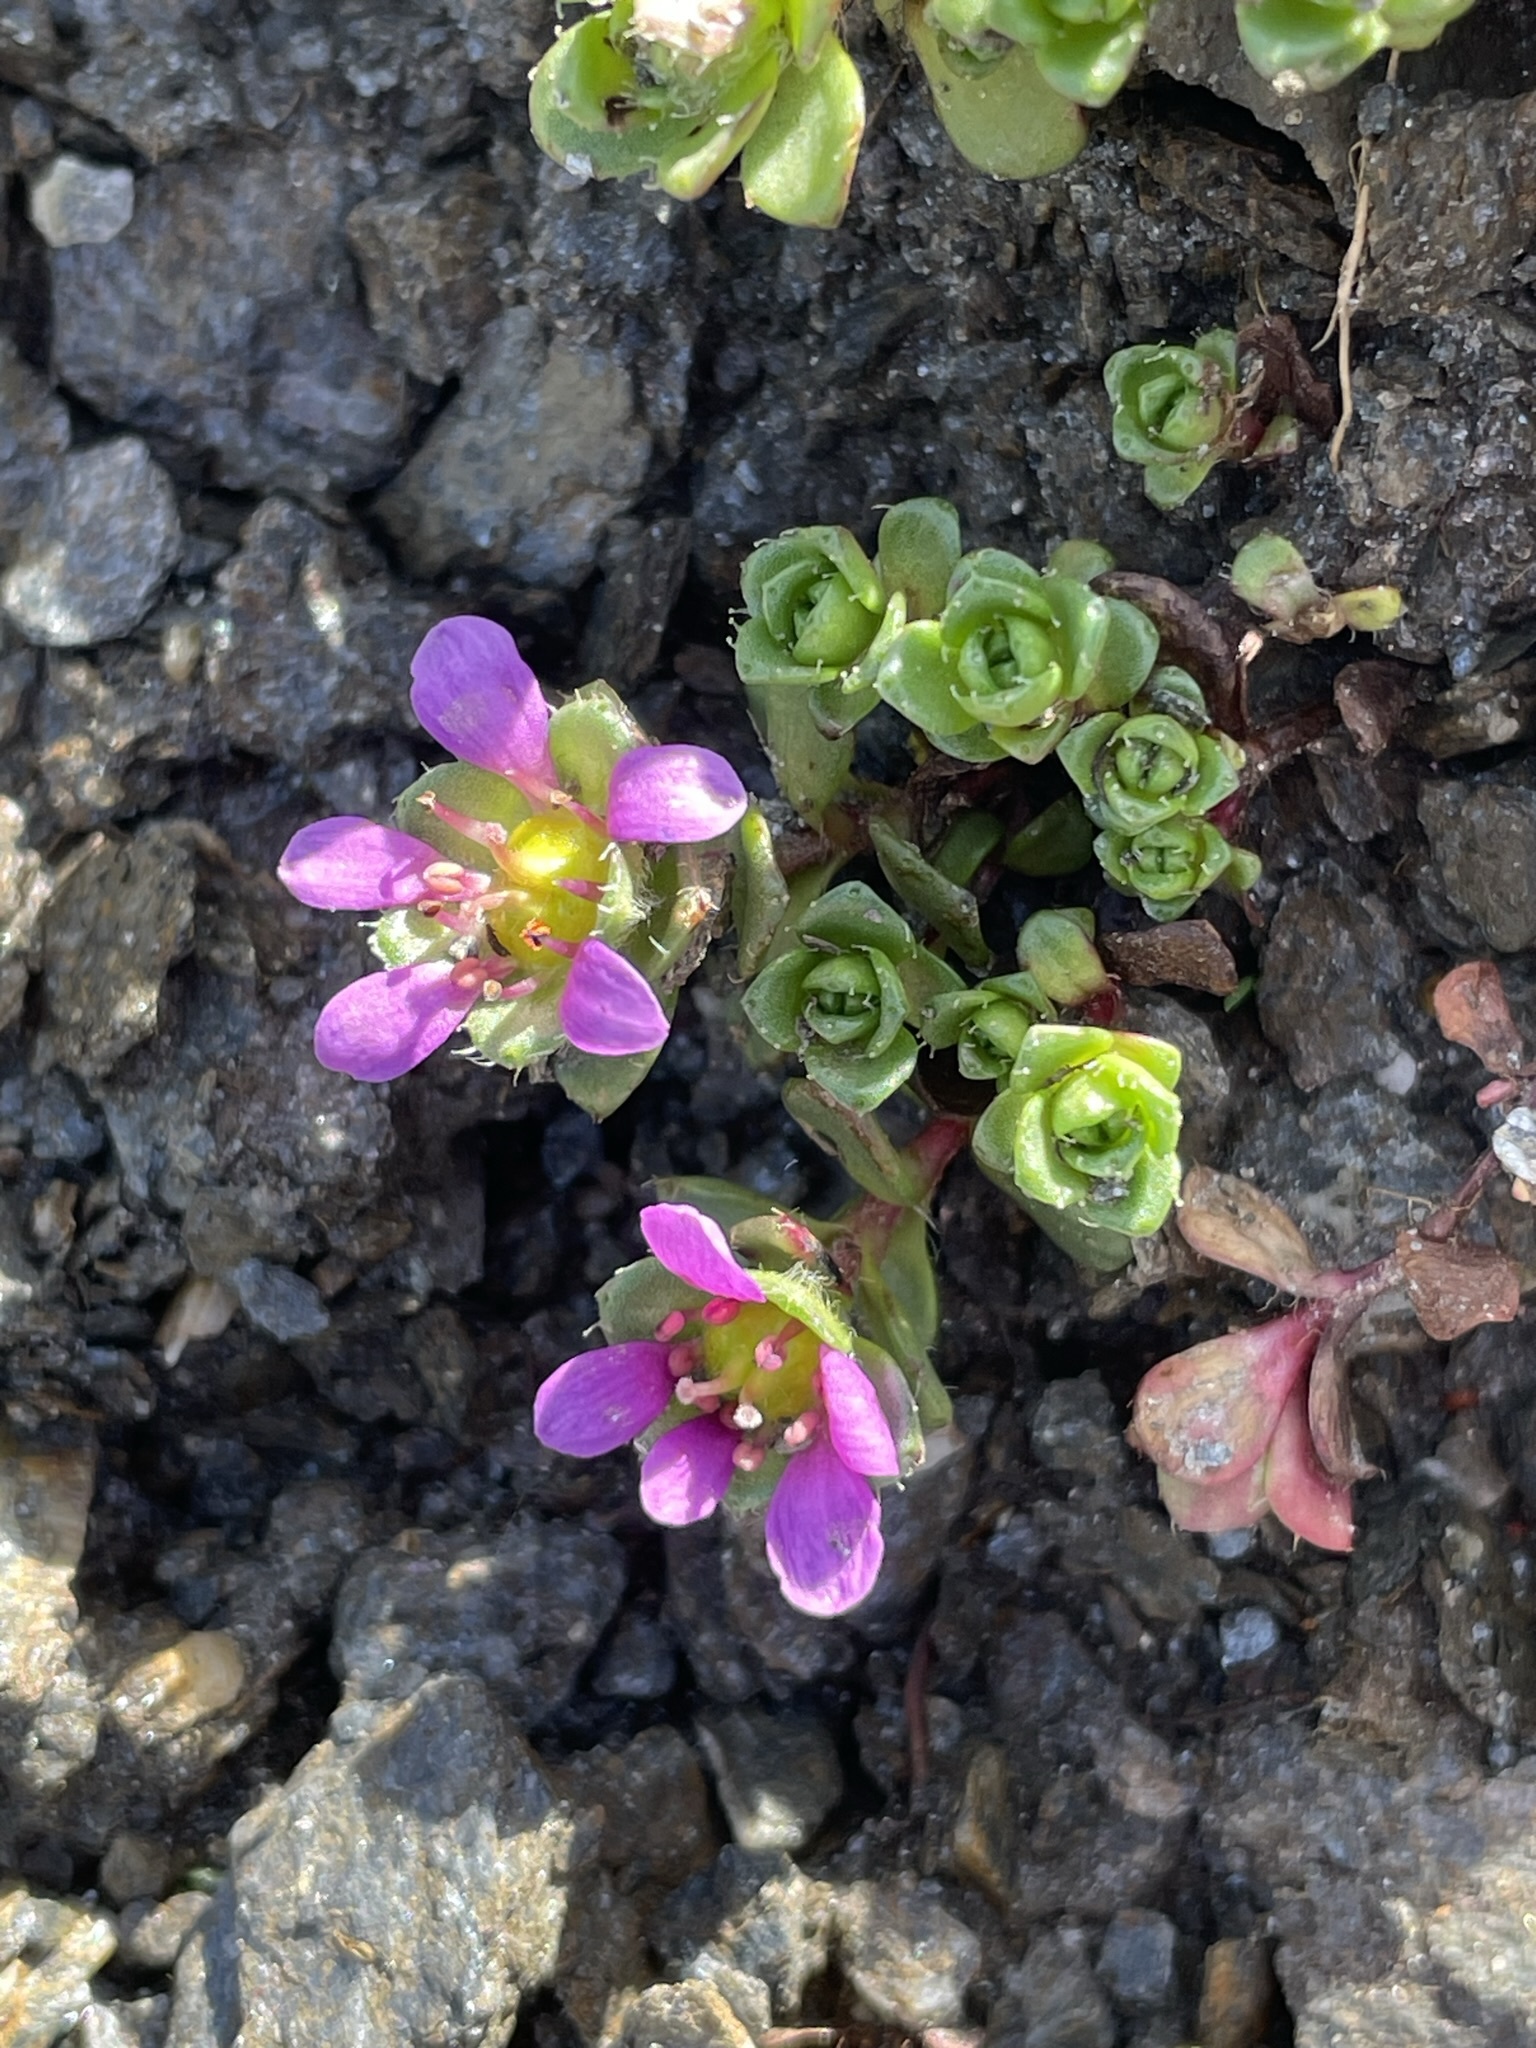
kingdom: Plantae
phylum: Tracheophyta
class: Magnoliopsida
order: Saxifragales
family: Saxifragaceae
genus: Saxifraga
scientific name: Saxifraga biflora
